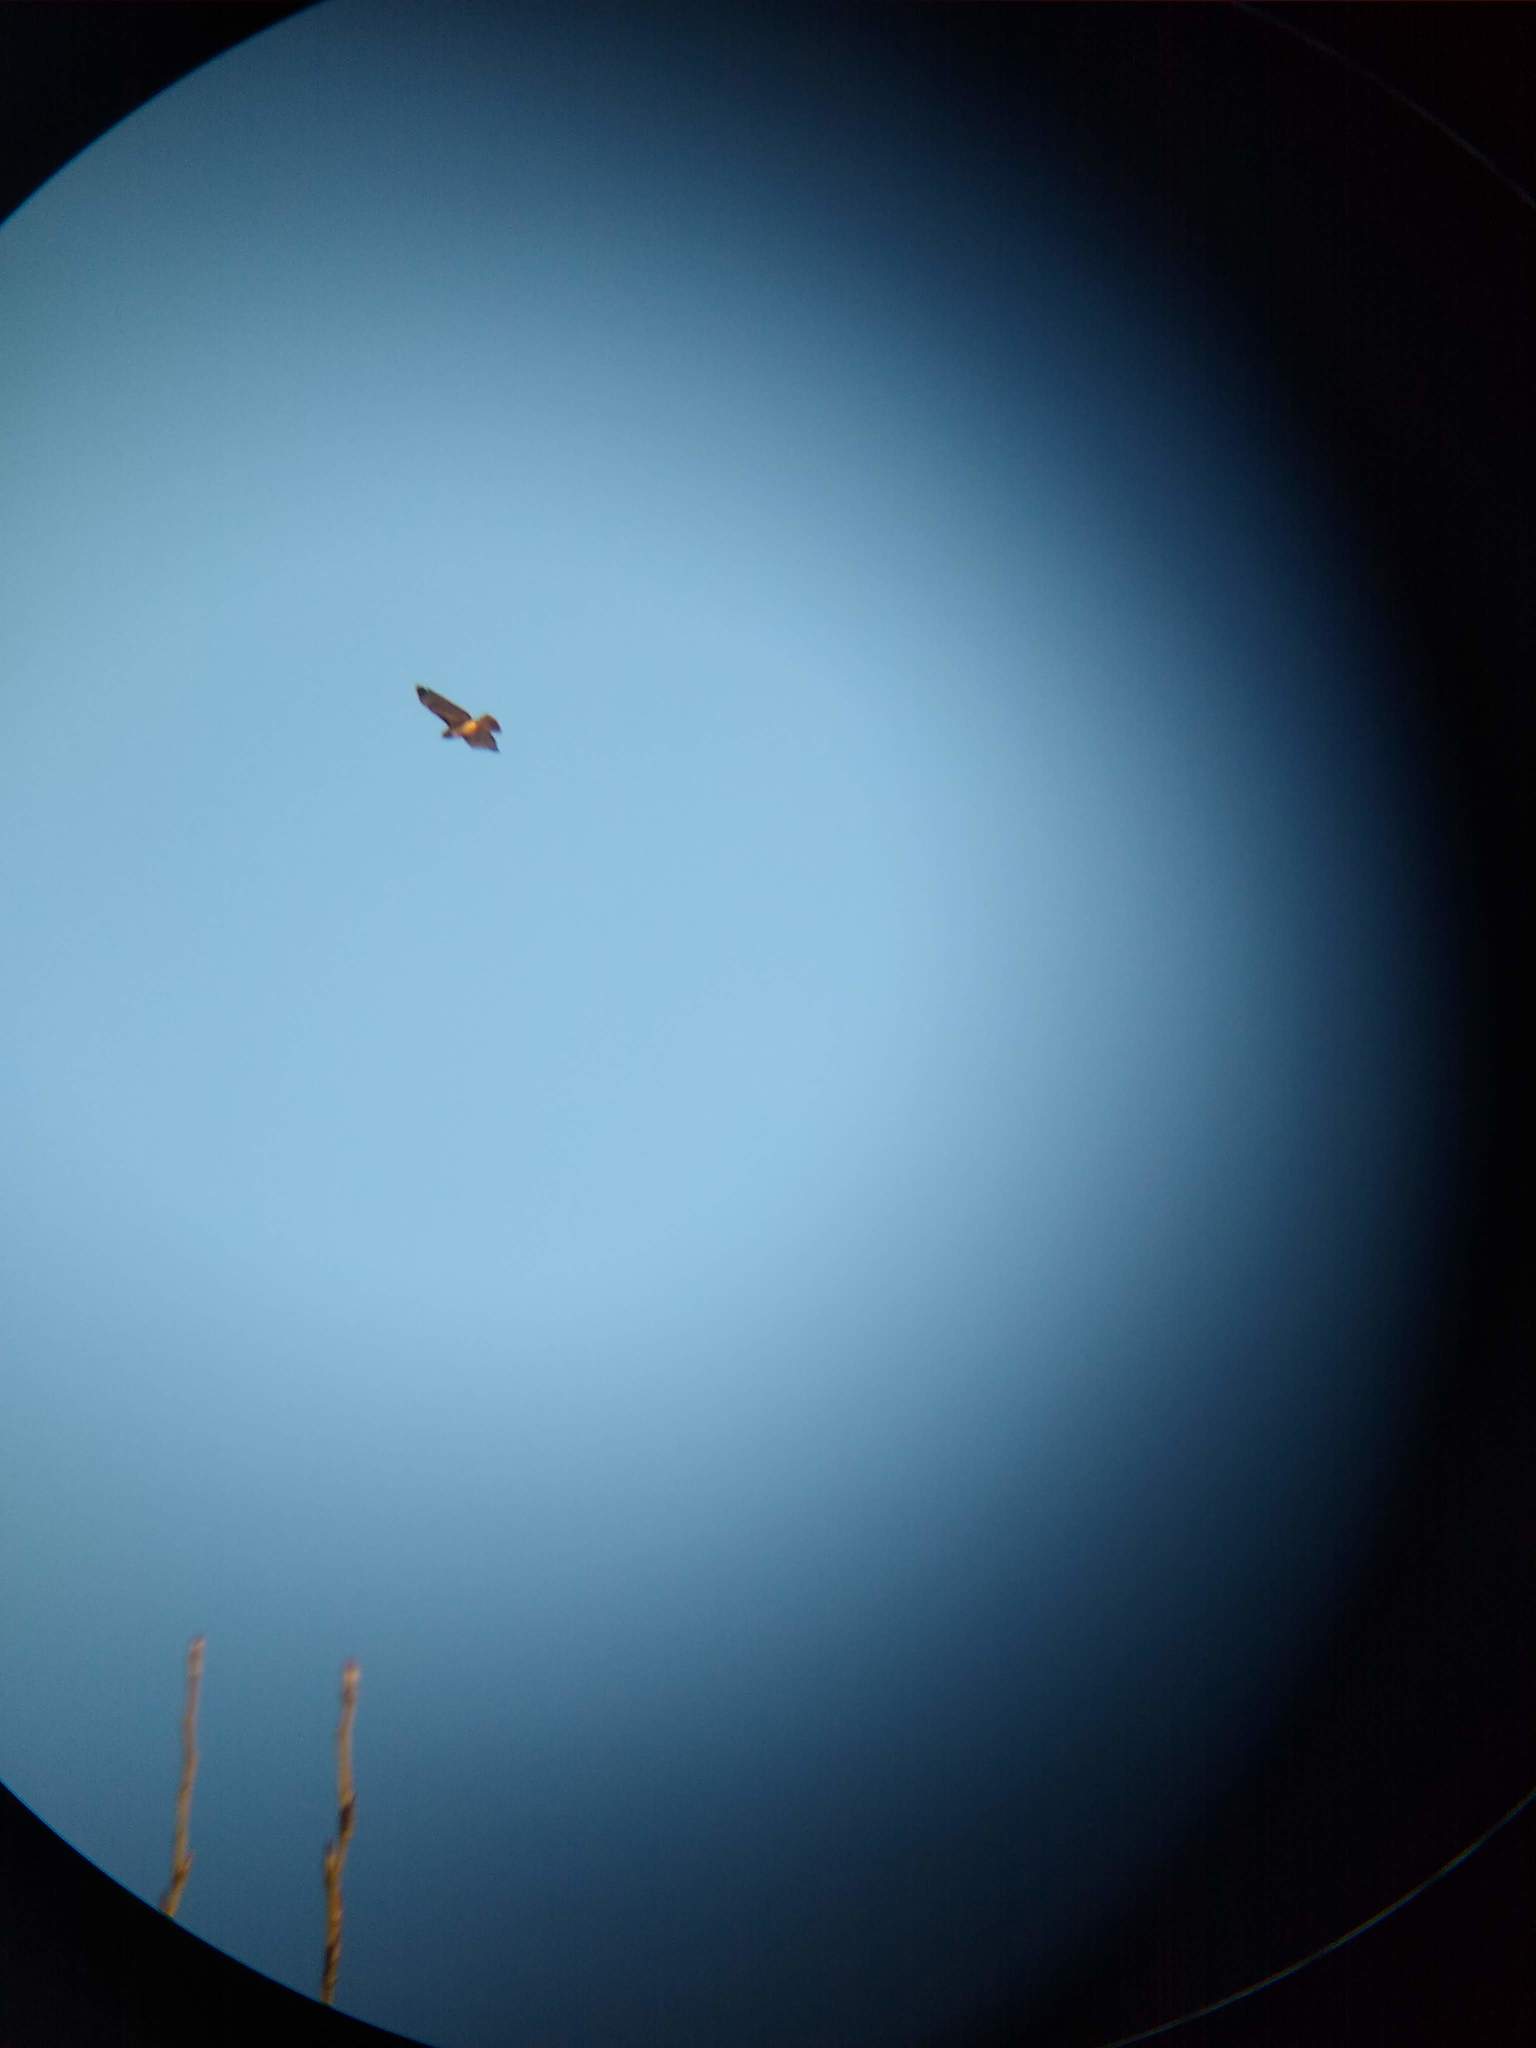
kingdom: Animalia
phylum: Chordata
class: Aves
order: Accipitriformes
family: Accipitridae
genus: Buteo
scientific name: Buteo jamaicensis
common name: Red-tailed hawk
